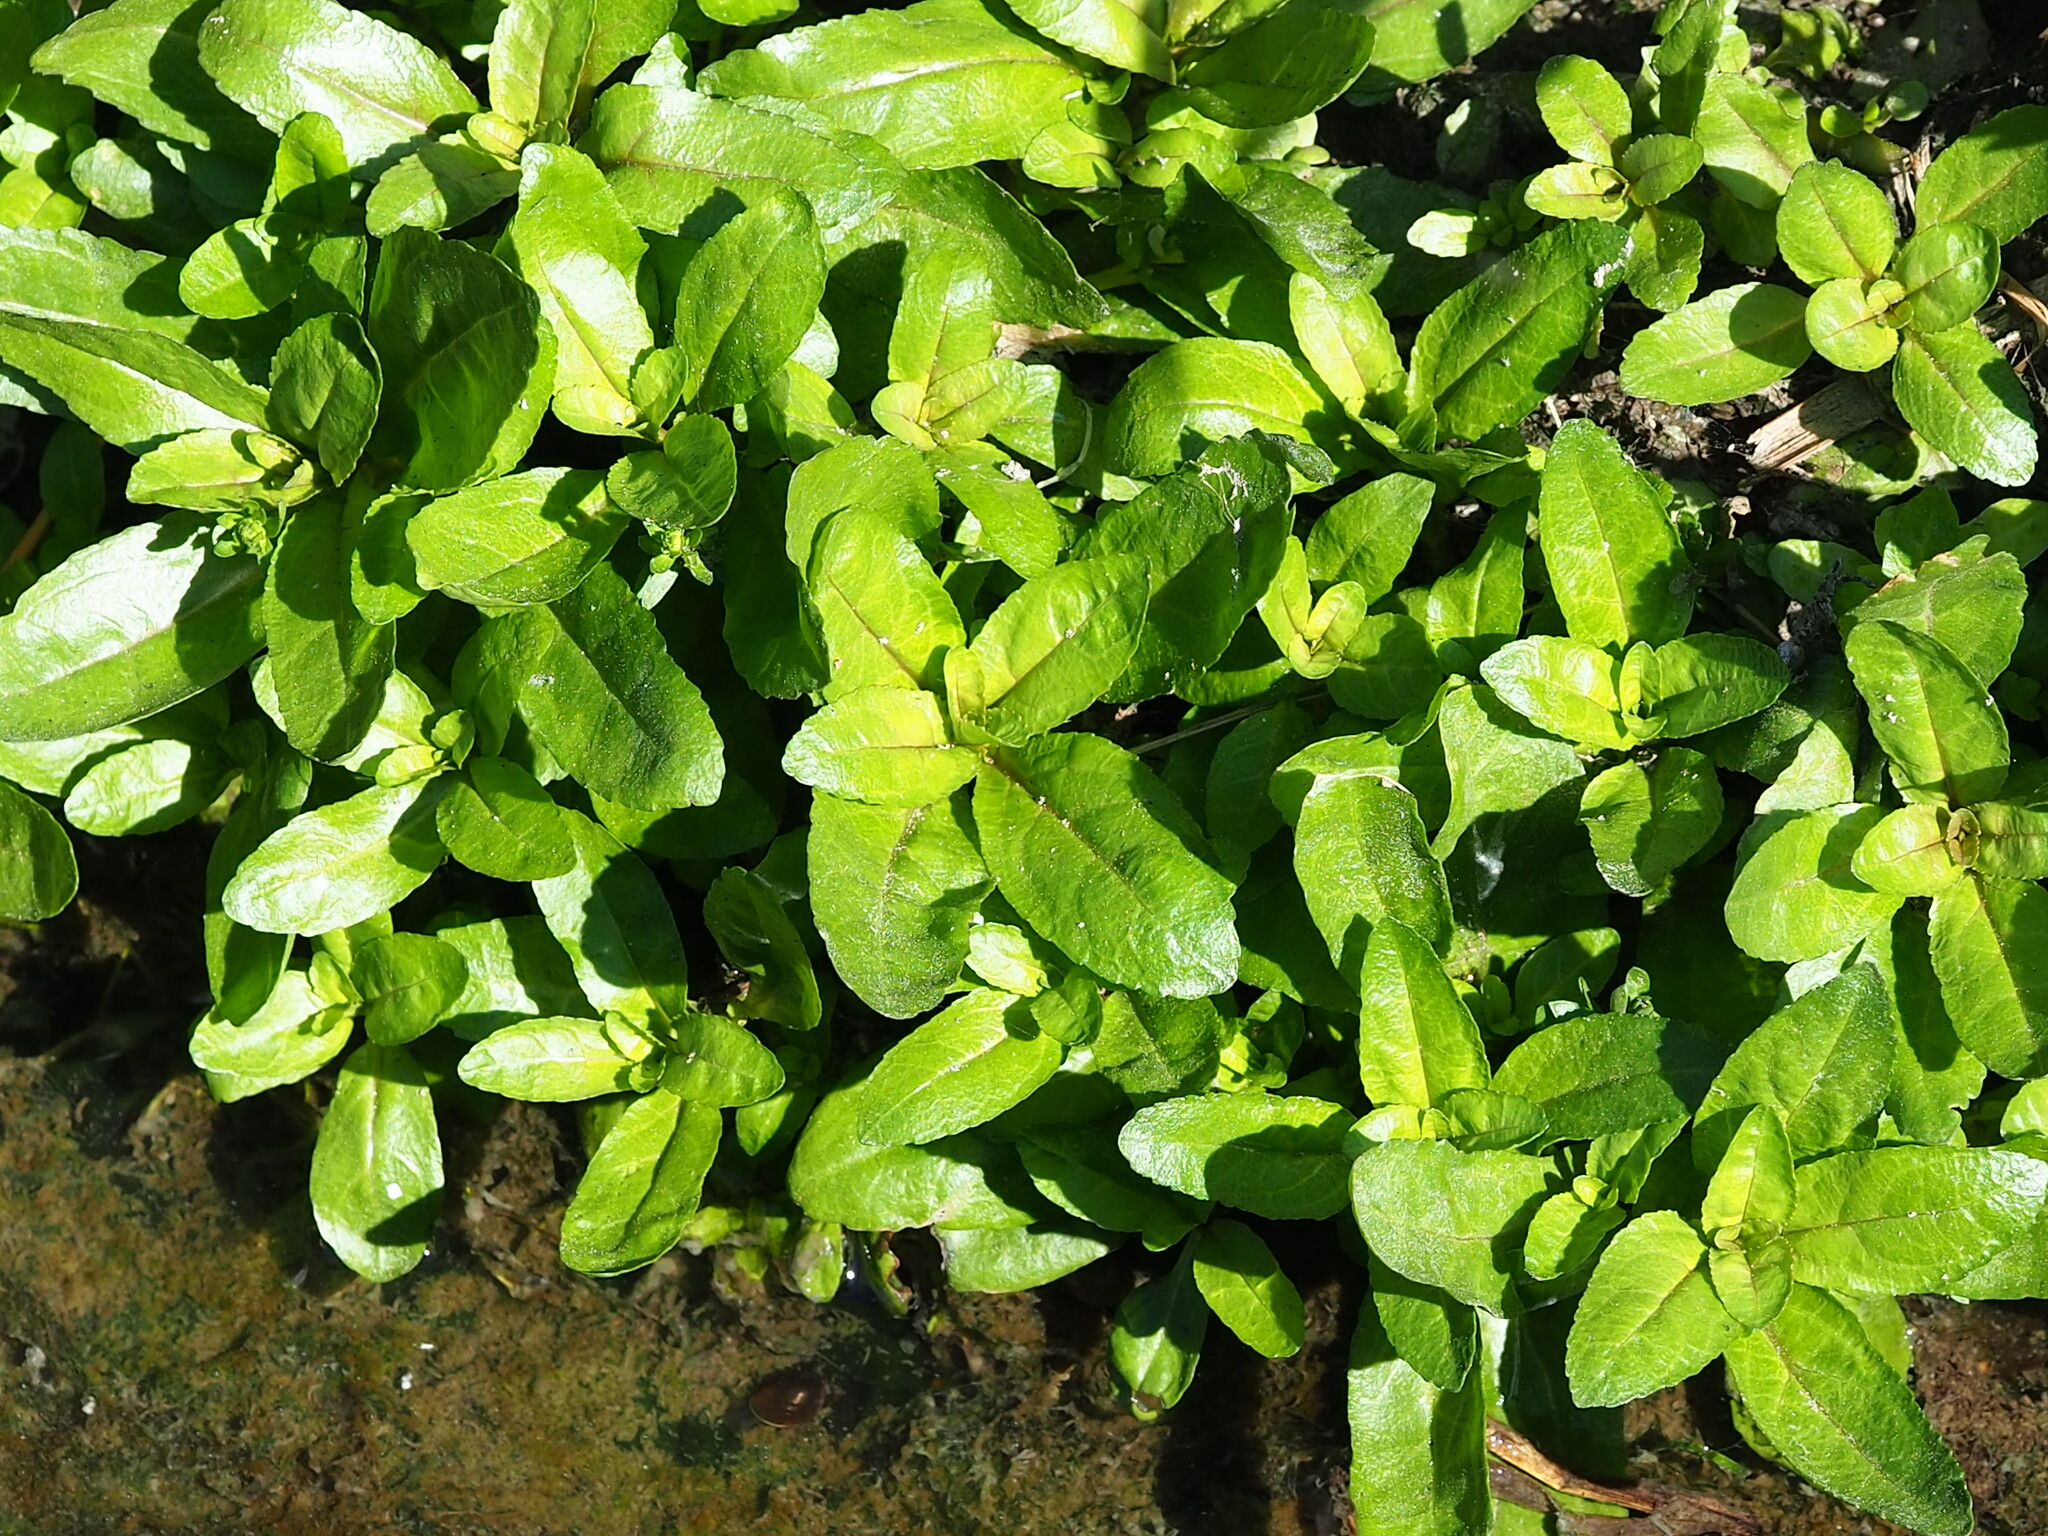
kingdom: Plantae
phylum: Tracheophyta
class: Magnoliopsida
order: Lamiales
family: Plantaginaceae
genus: Veronica
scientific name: Veronica undulata
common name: Undulate speedwell
